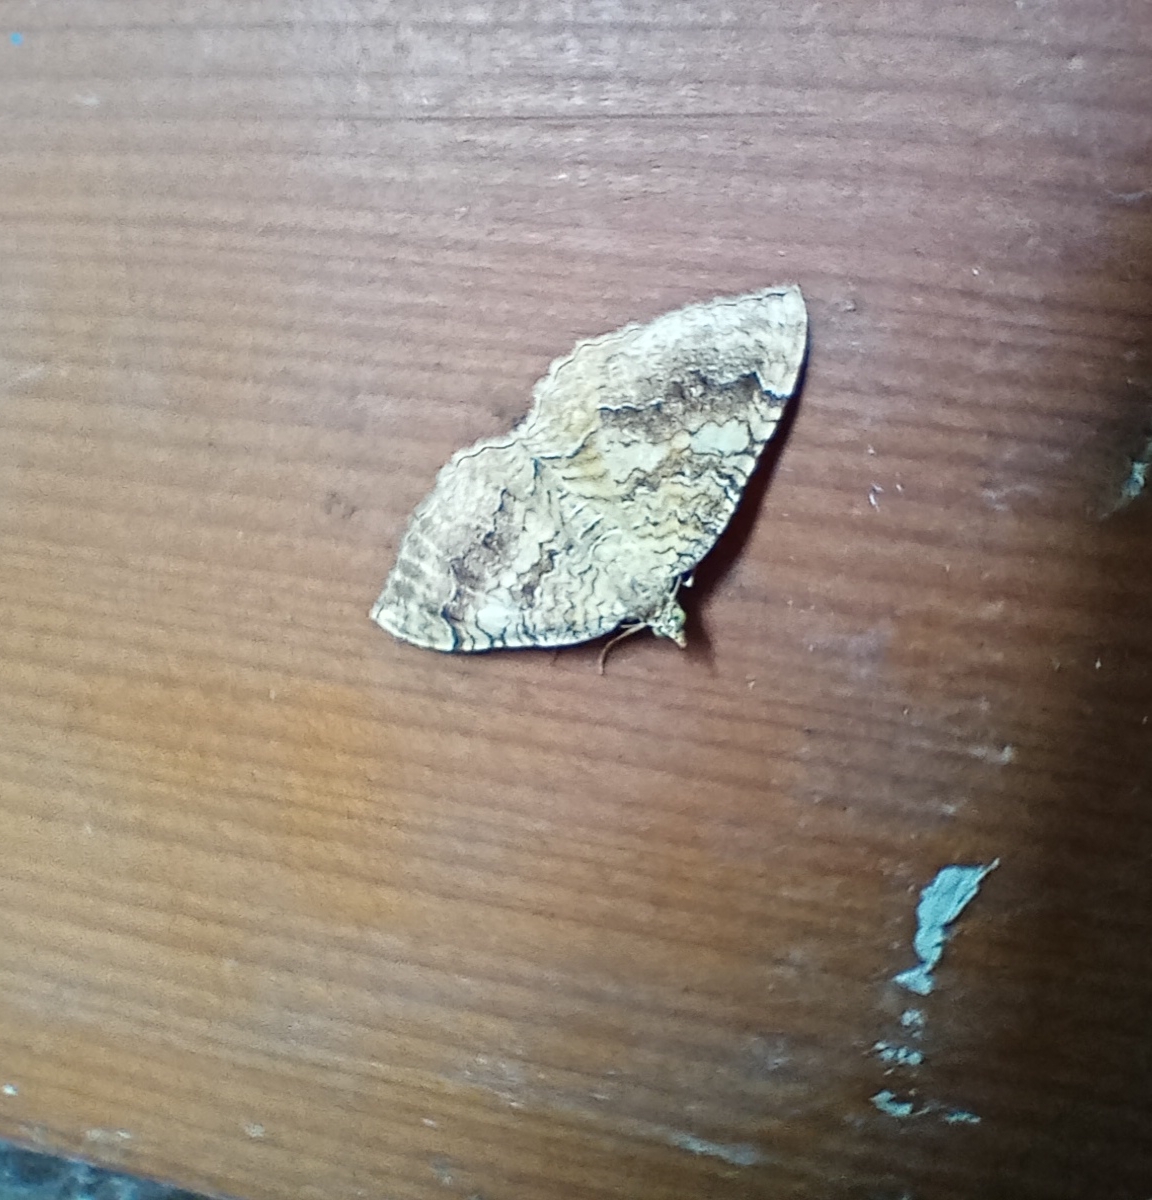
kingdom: Animalia
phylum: Arthropoda
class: Insecta
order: Lepidoptera
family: Geometridae
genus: Camptogramma
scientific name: Camptogramma bilineata
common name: Yellow shell
